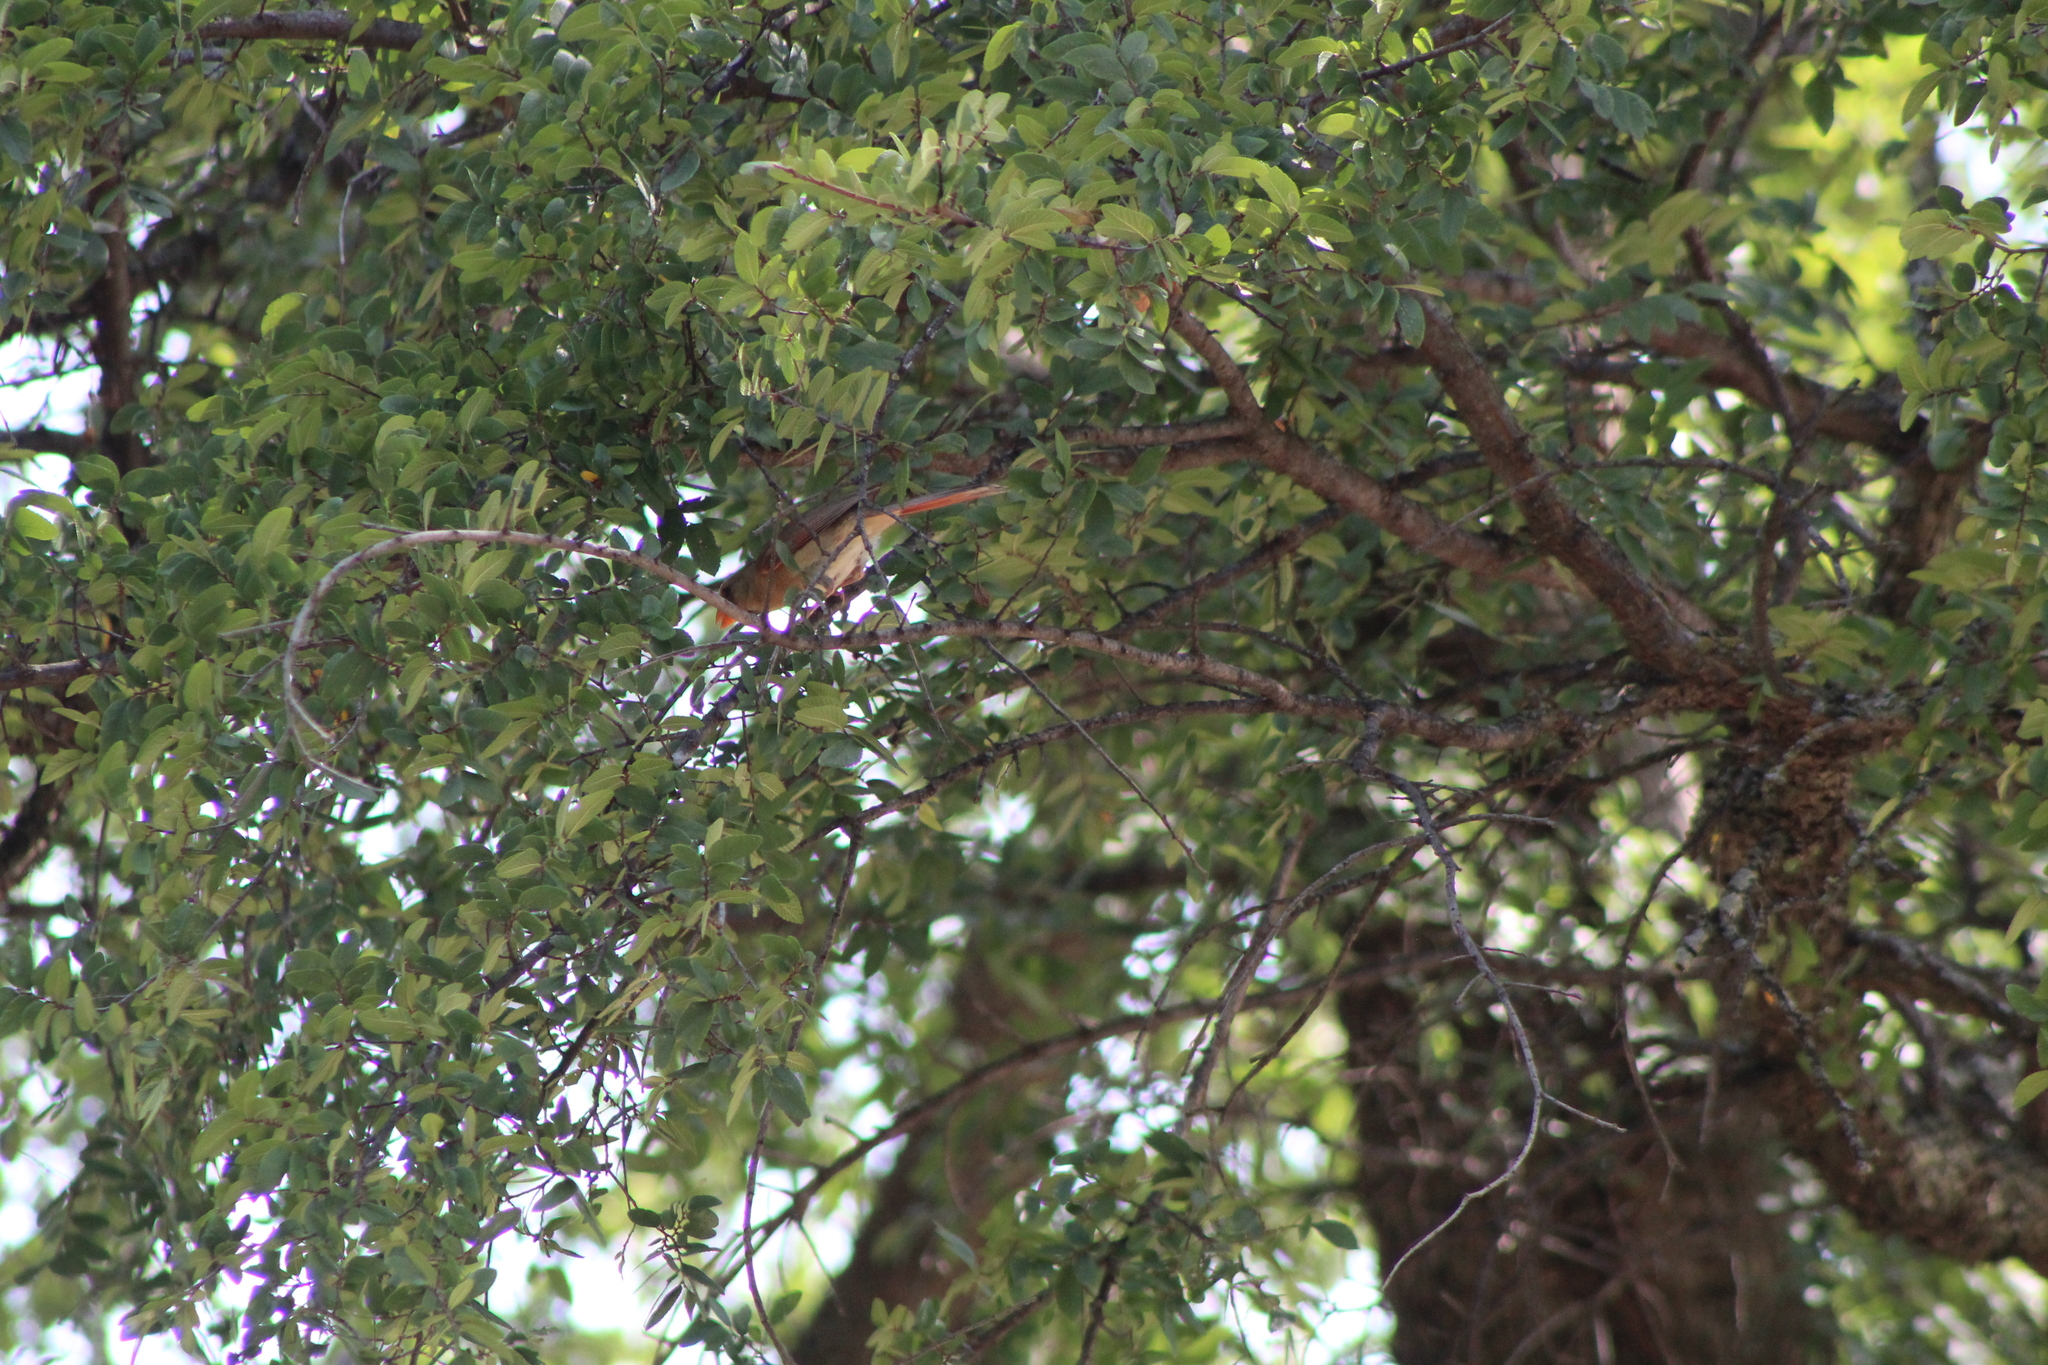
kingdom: Animalia
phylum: Chordata
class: Aves
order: Passeriformes
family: Cardinalidae
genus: Cardinalis
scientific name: Cardinalis cardinalis
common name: Northern cardinal
